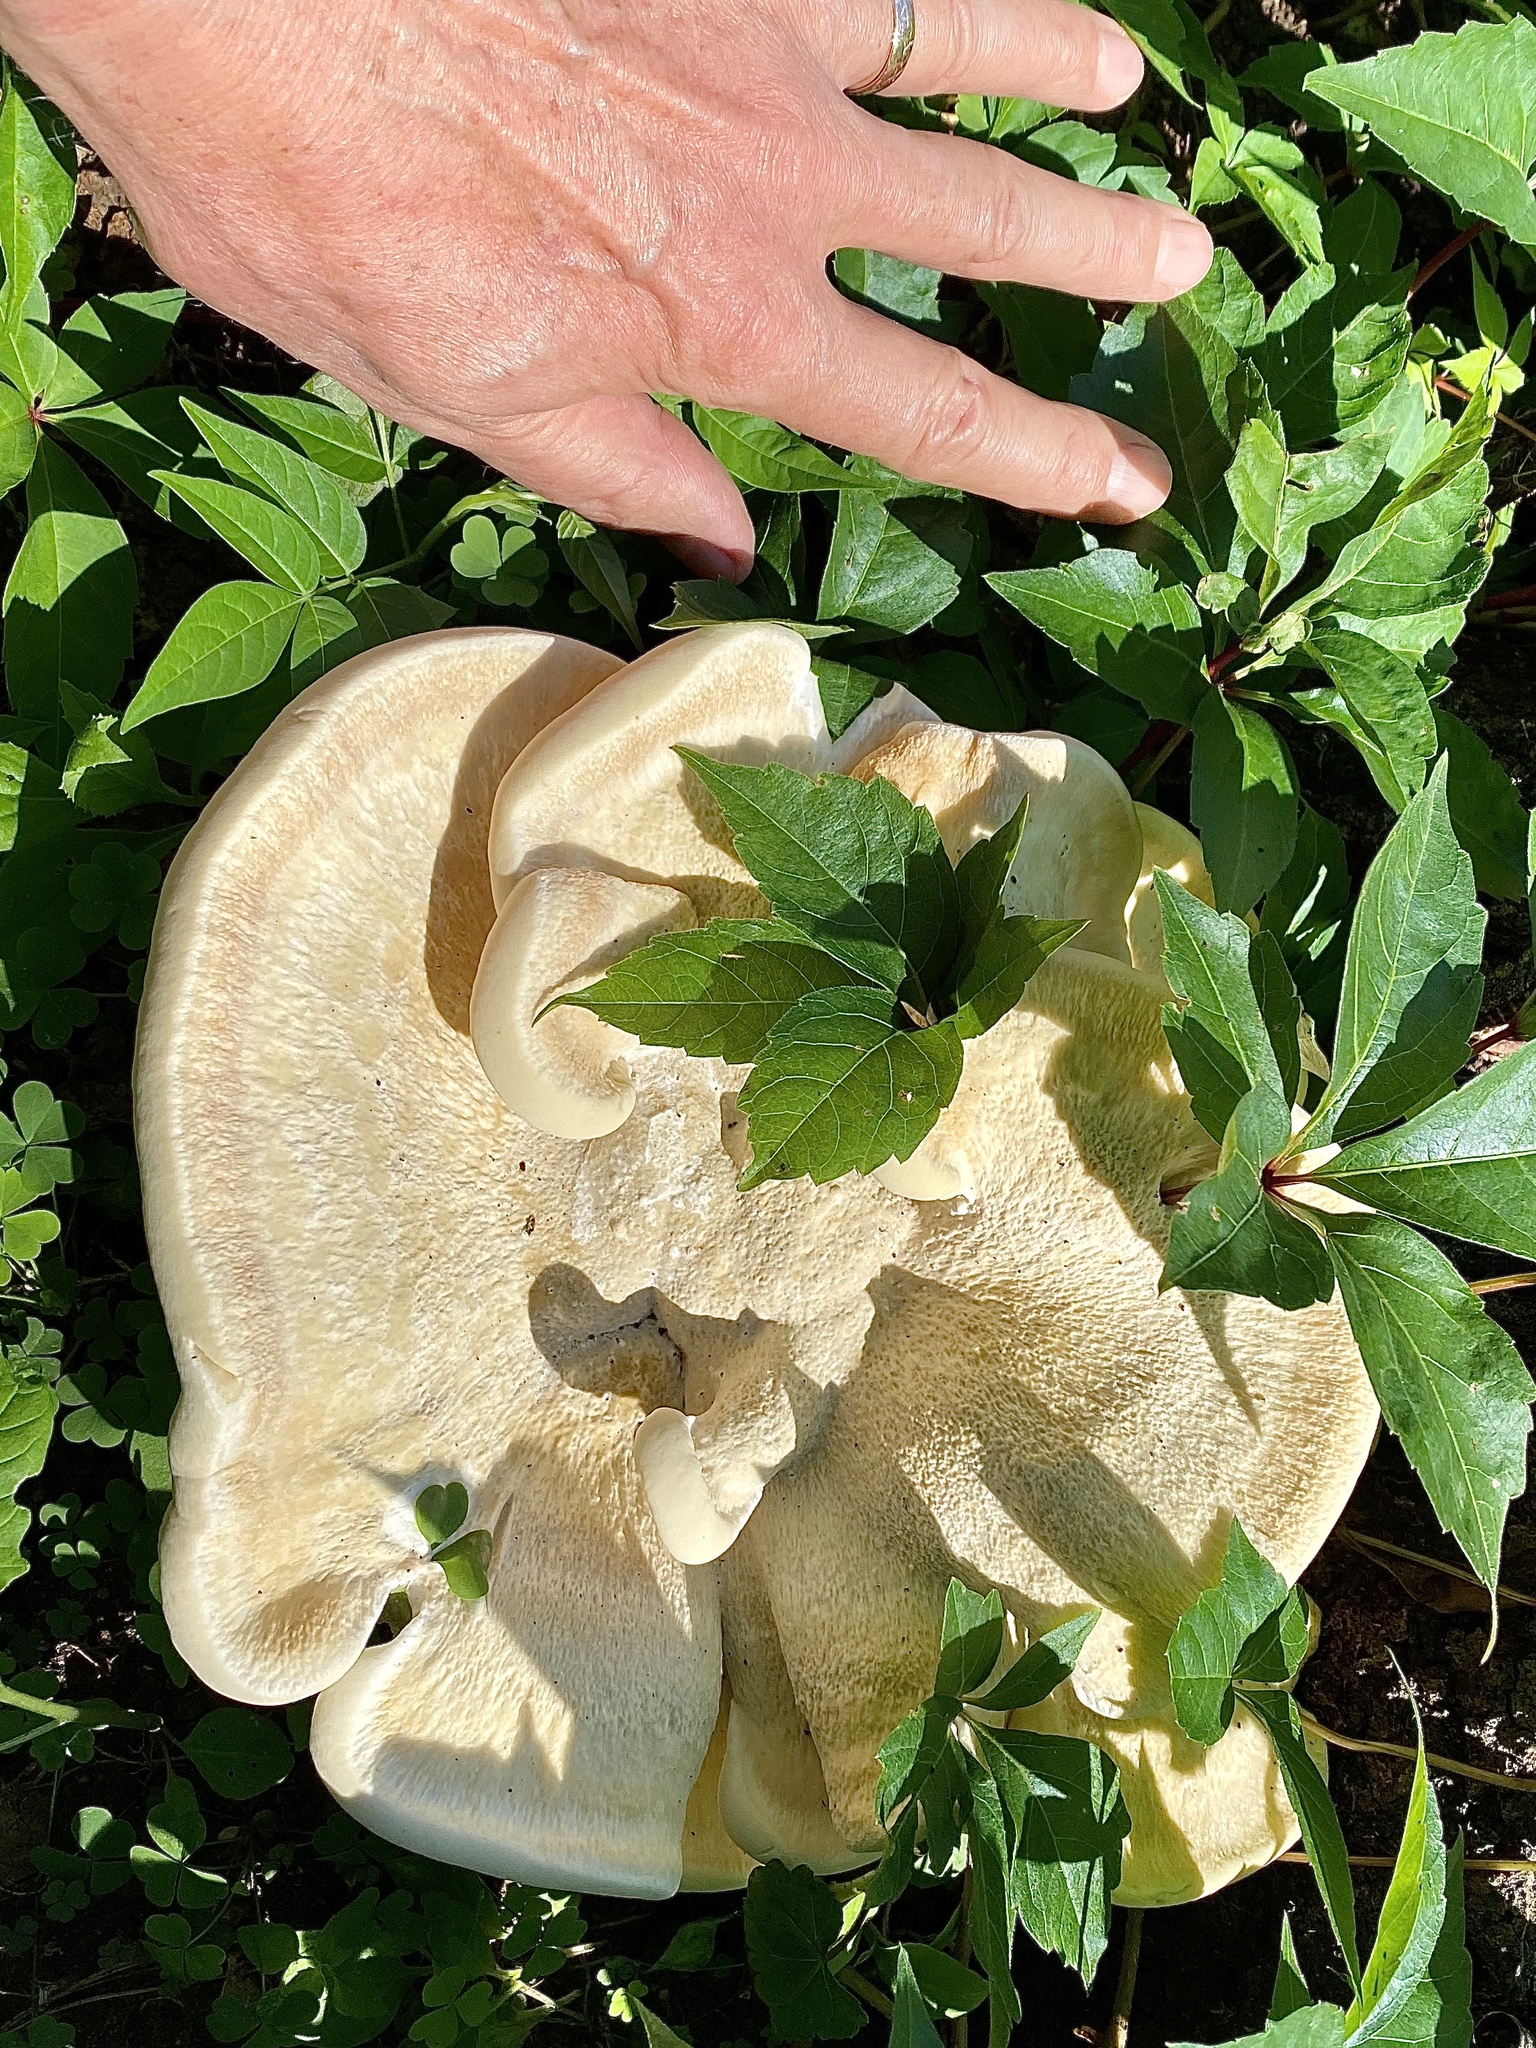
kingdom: Fungi
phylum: Basidiomycota
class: Agaricomycetes
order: Russulales
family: Bondarzewiaceae
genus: Bondarzewia
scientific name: Bondarzewia berkeleyi
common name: Berkeley's polypore
